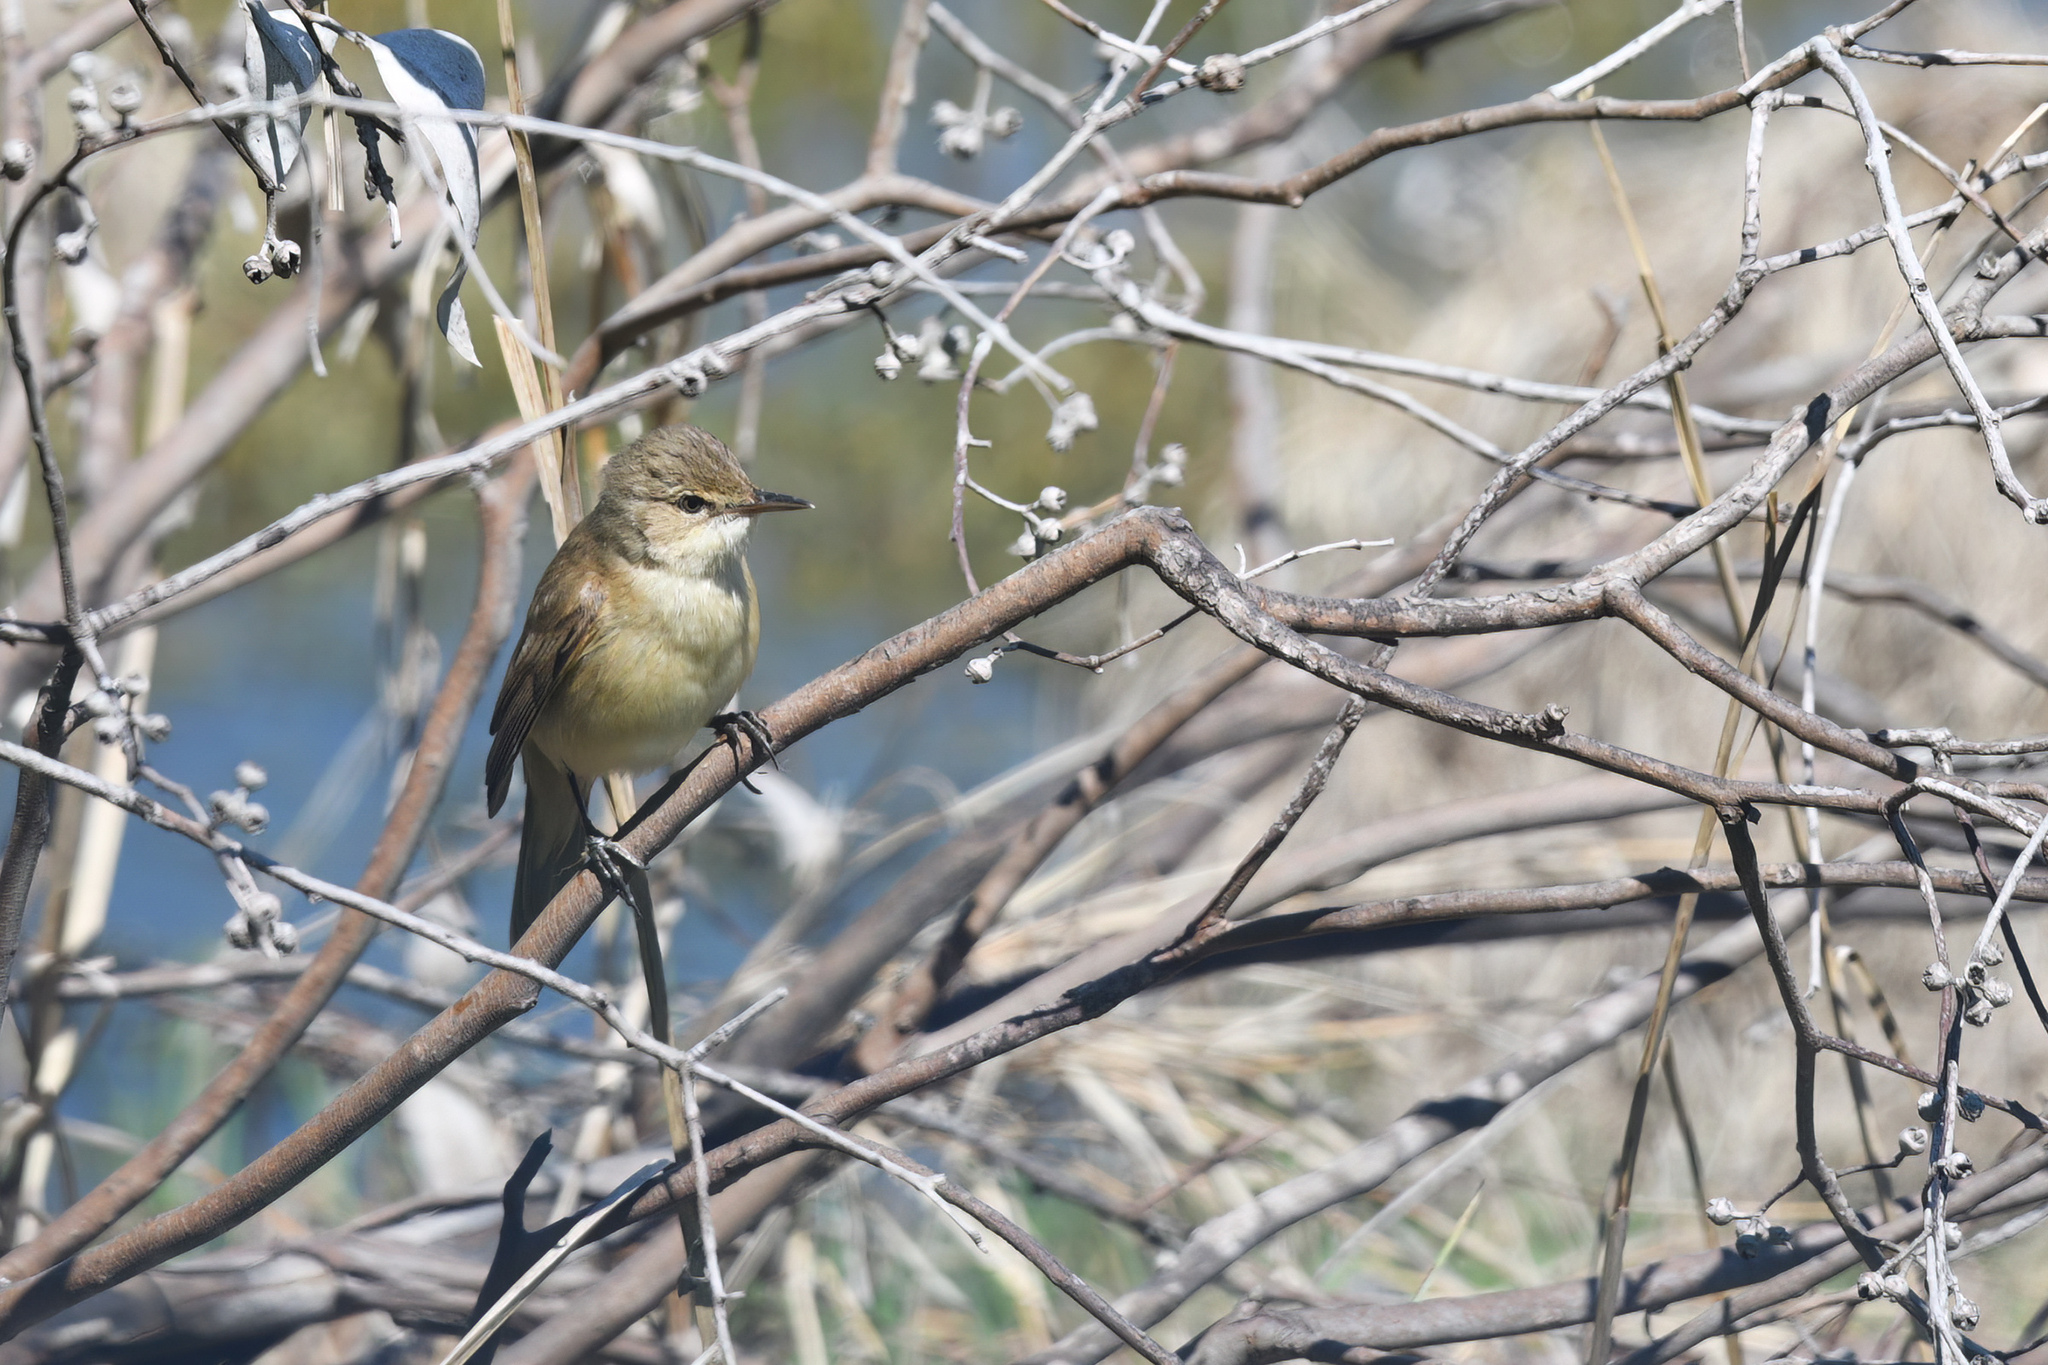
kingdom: Animalia
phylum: Chordata
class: Aves
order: Passeriformes
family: Acrocephalidae
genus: Acrocephalus
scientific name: Acrocephalus australis
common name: Australian reed warbler
